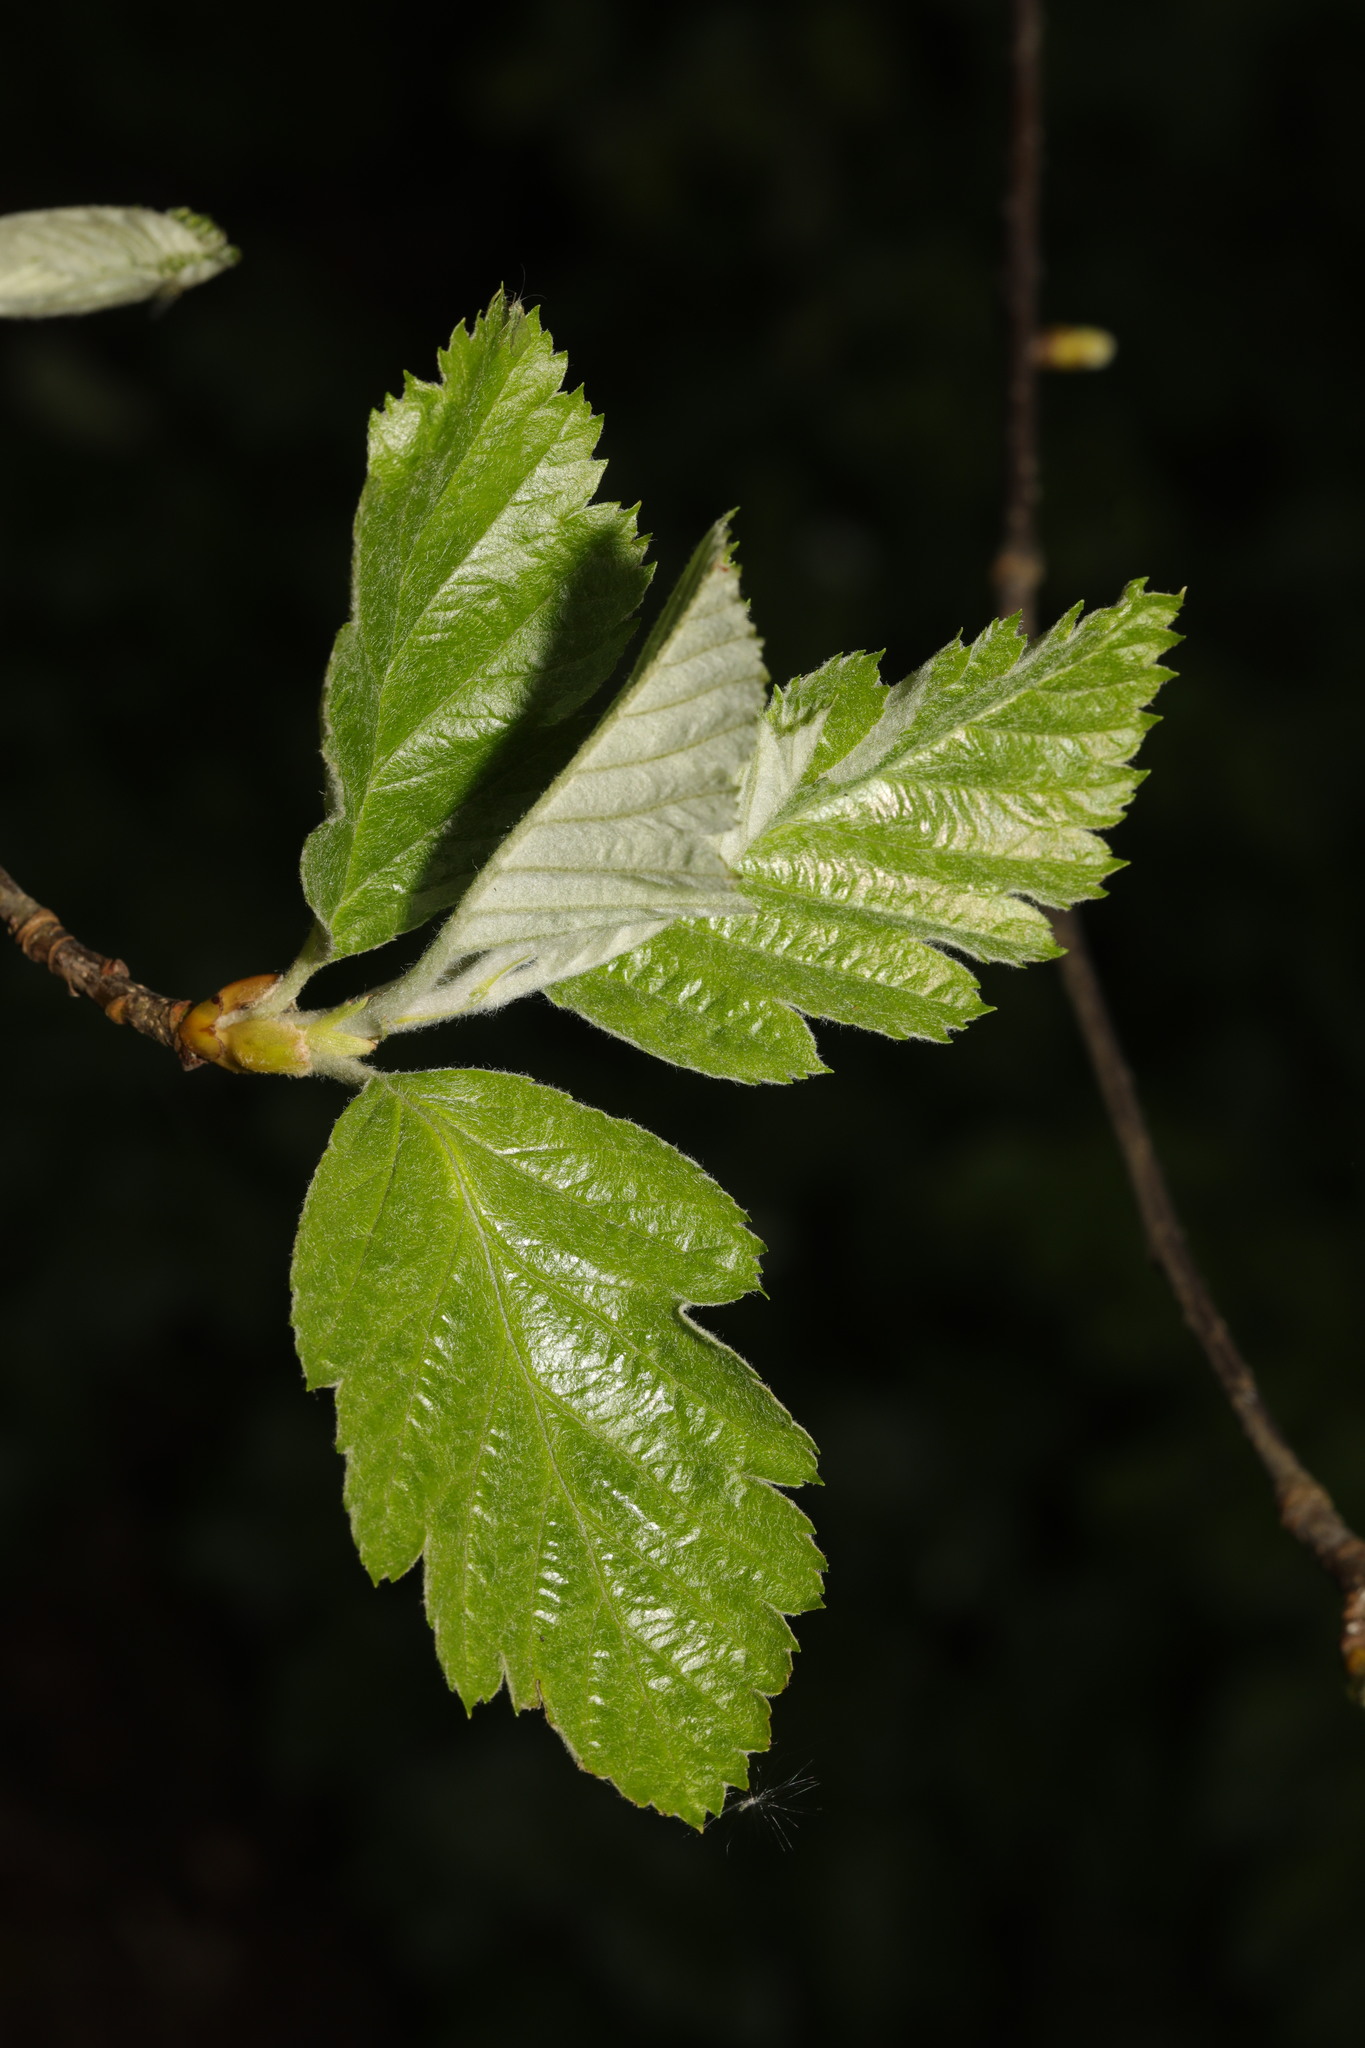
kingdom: Plantae
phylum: Tracheophyta
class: Magnoliopsida
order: Rosales
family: Rosaceae
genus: Scandosorbus
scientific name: Scandosorbus intermedia
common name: Swedish whitebeam
